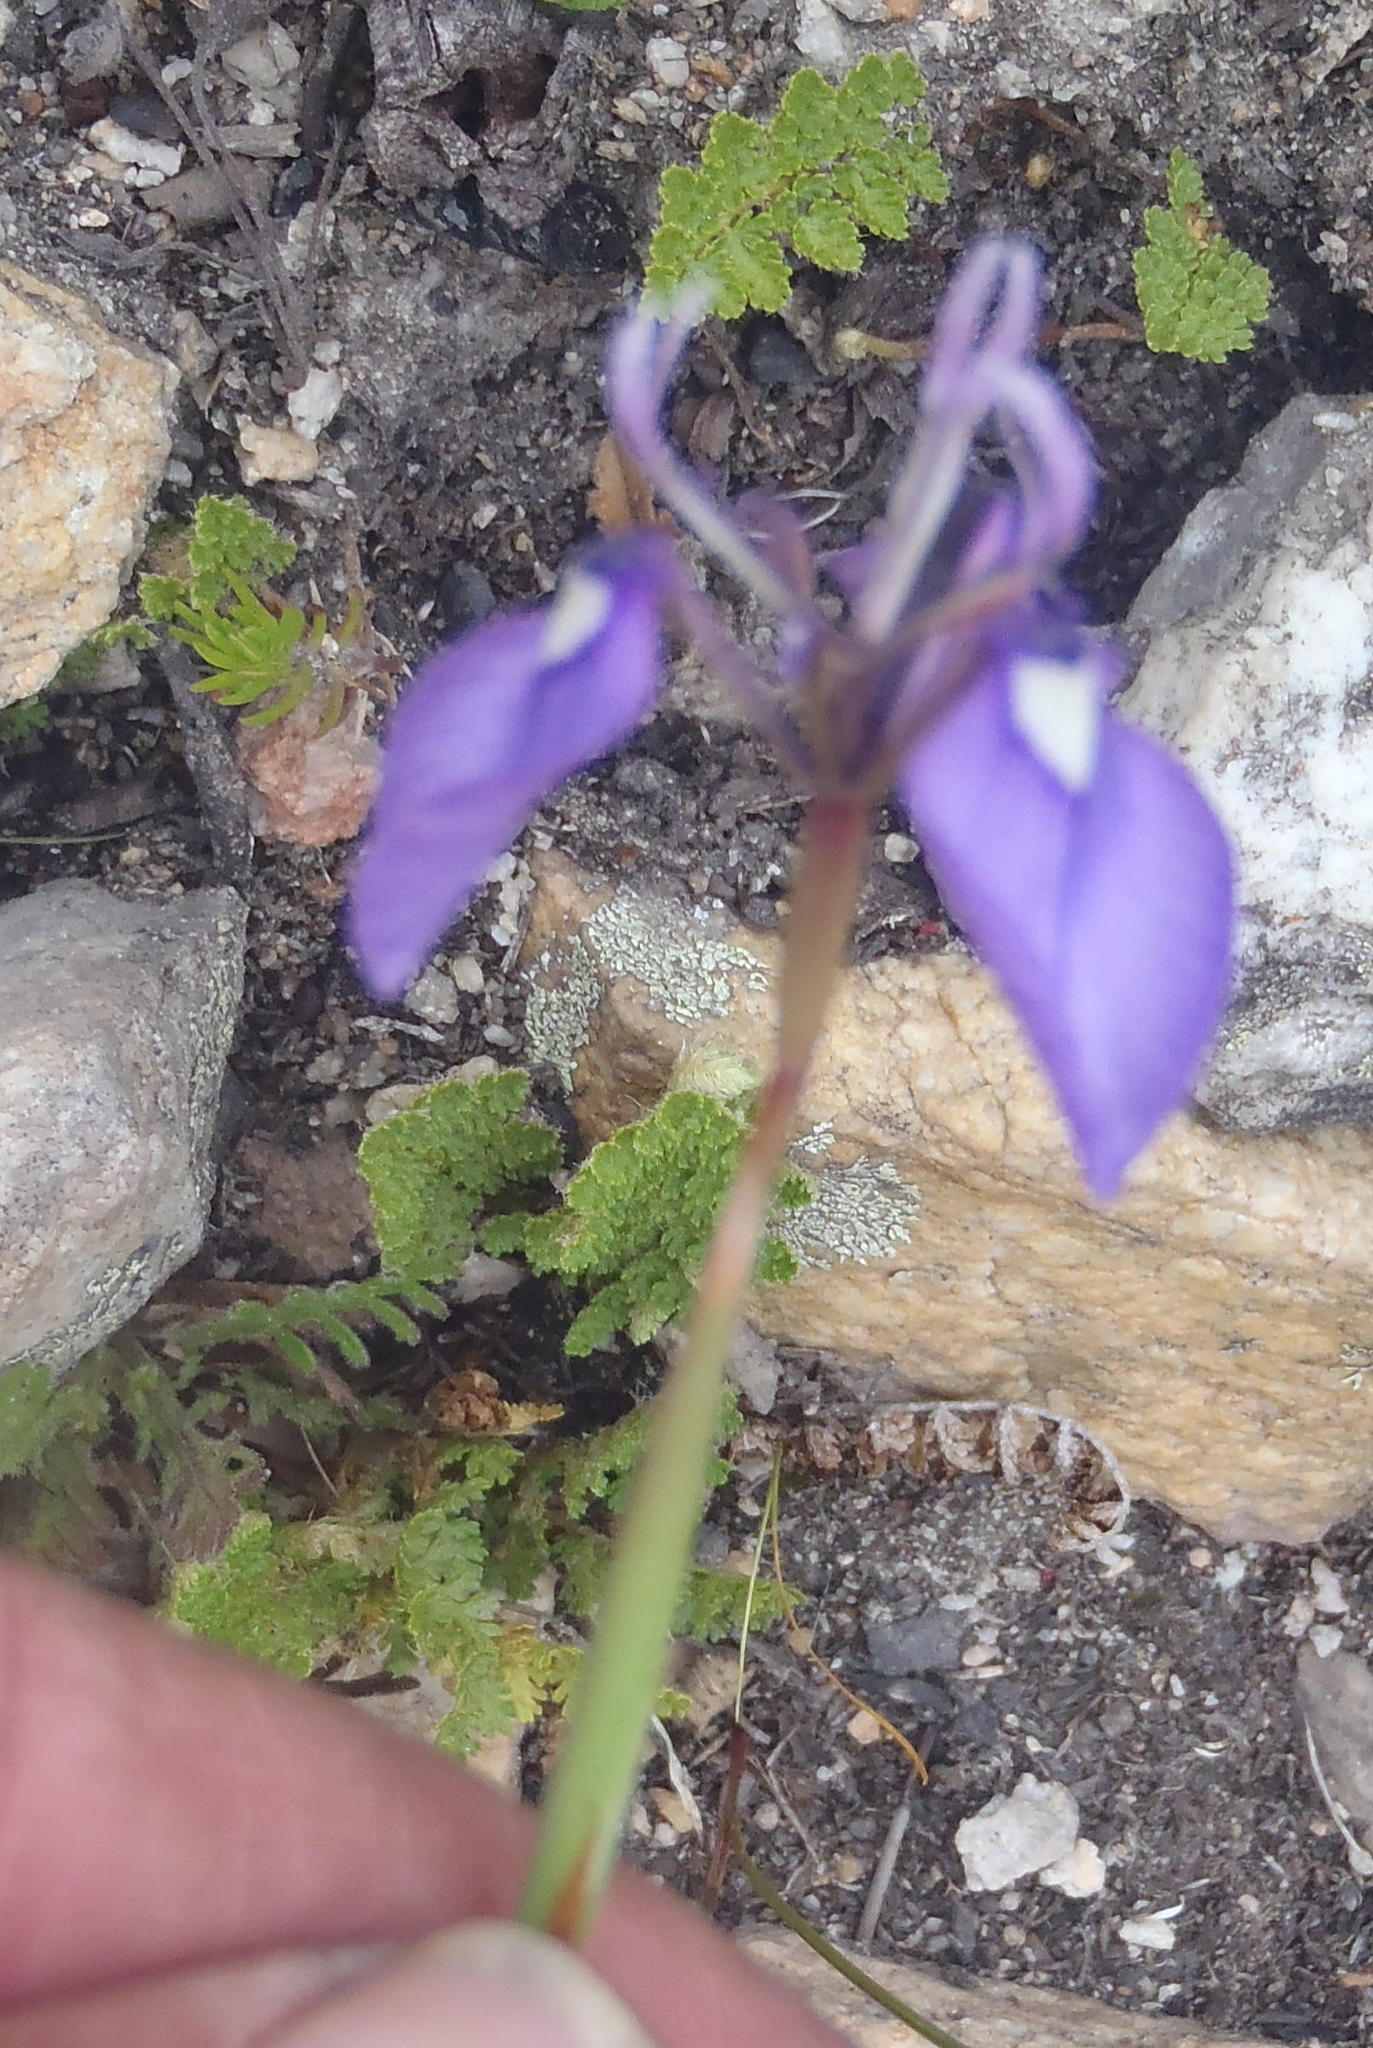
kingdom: Plantae
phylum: Tracheophyta
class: Liliopsida
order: Asparagales
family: Iridaceae
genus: Moraea
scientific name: Moraea tripetala
